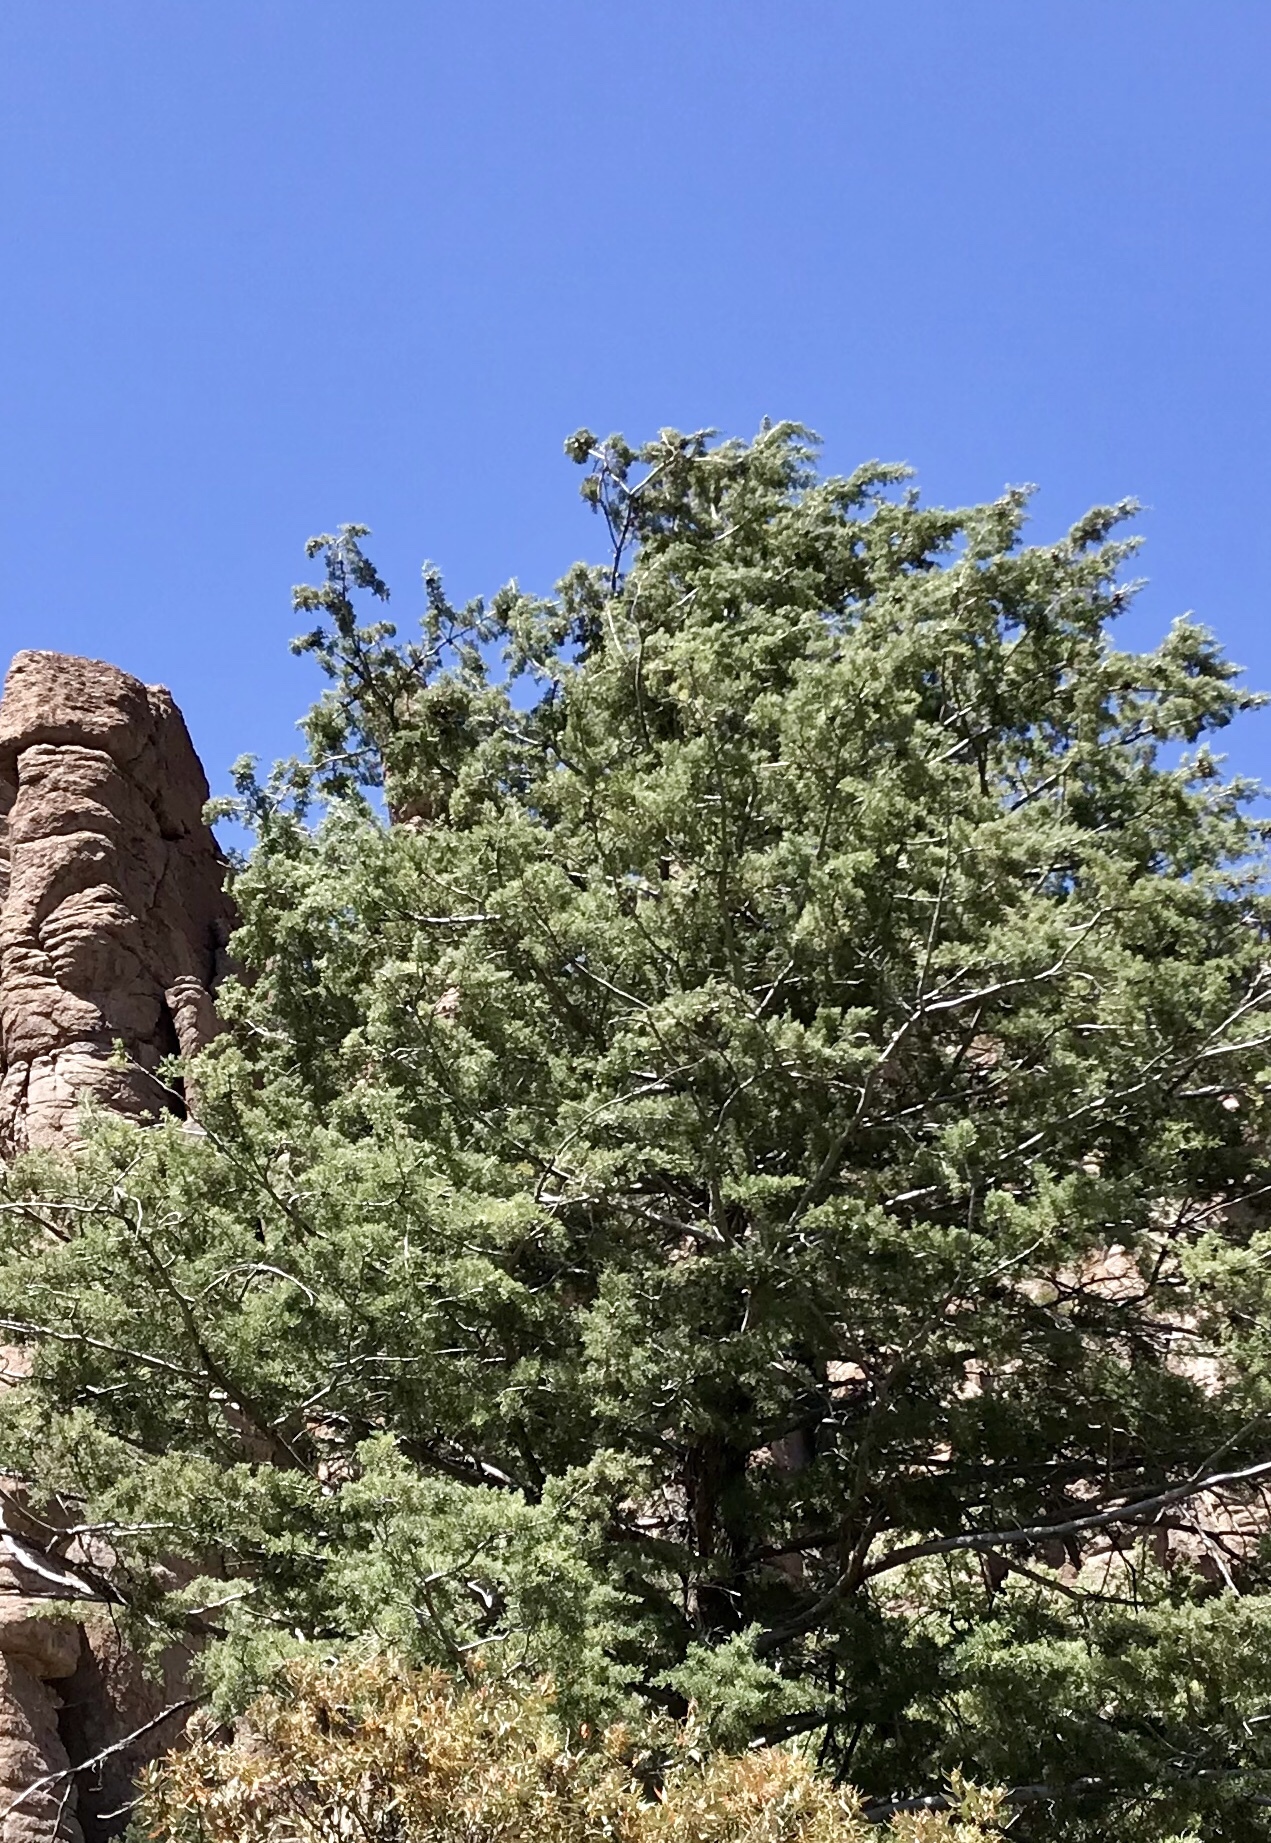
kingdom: Plantae
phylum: Tracheophyta
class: Pinopsida
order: Pinales
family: Cupressaceae
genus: Cupressus
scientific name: Cupressus arizonica
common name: Arizona cypress
